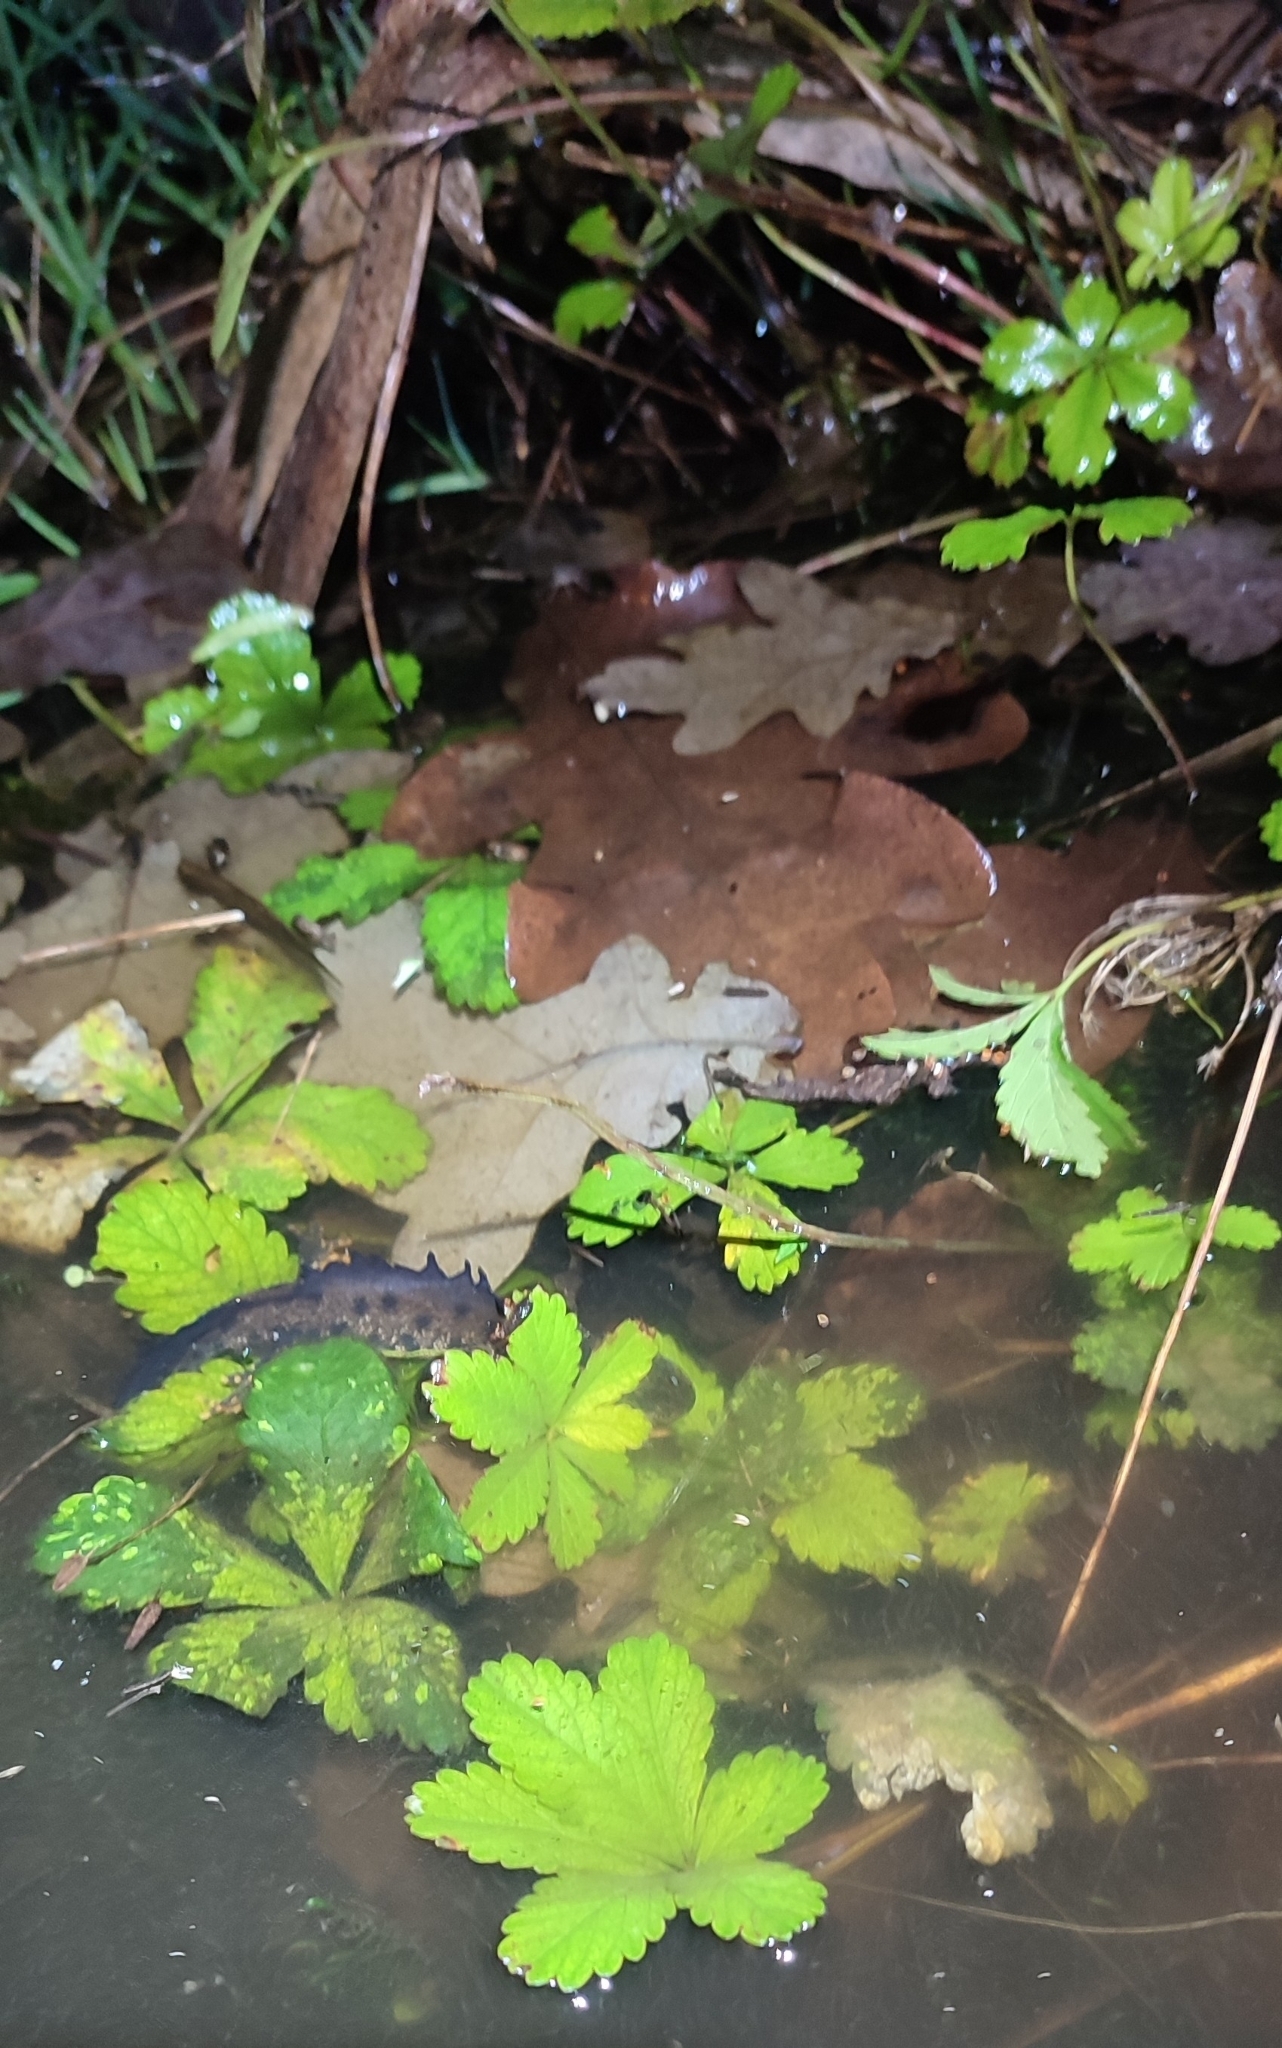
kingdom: Animalia
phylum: Chordata
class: Amphibia
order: Caudata
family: Salamandridae
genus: Triturus
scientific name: Triturus cristatus
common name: Crested newt
